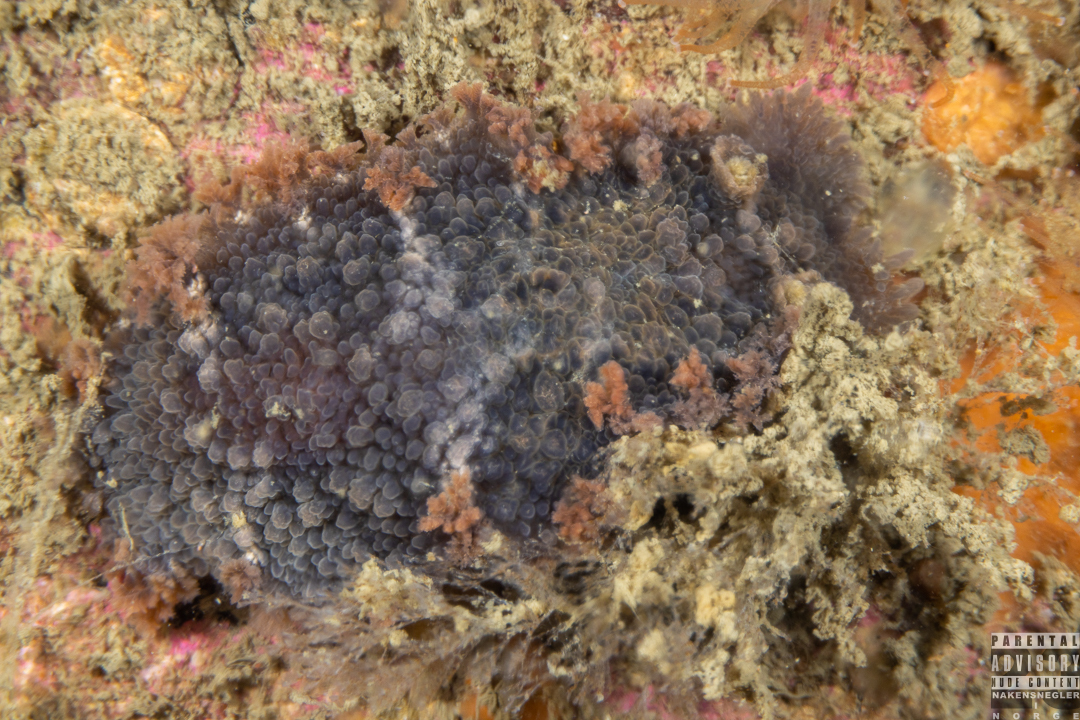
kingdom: Animalia
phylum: Mollusca
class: Gastropoda
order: Nudibranchia
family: Tritoniidae
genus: Tritonia
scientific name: Tritonia hombergii
